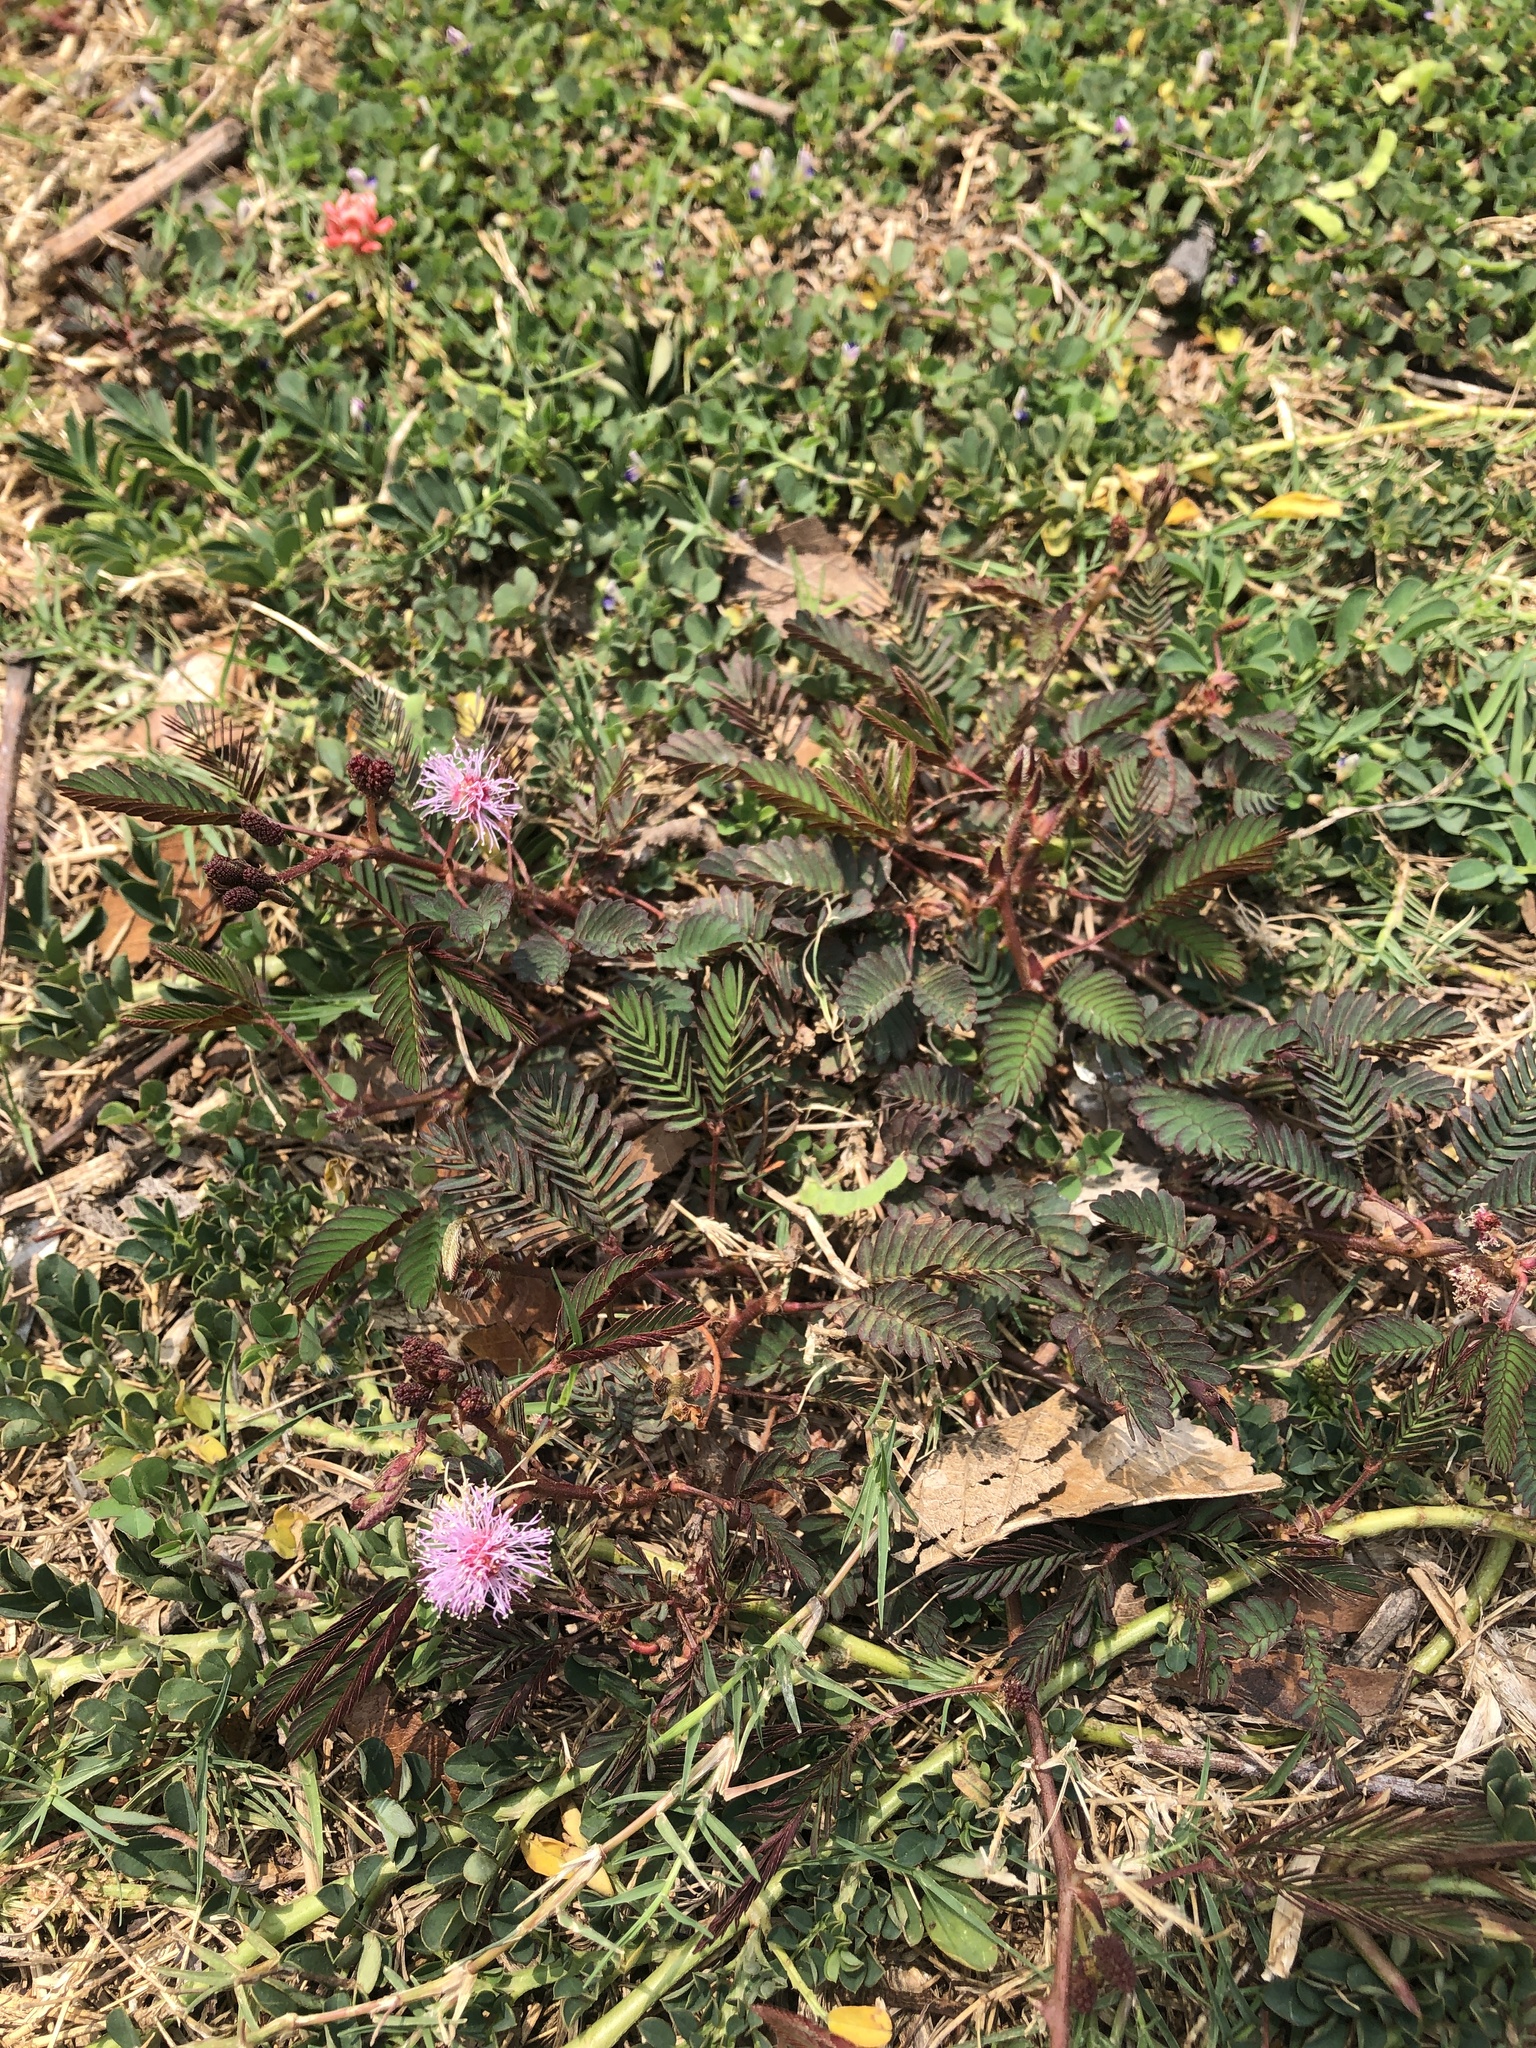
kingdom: Plantae
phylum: Tracheophyta
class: Magnoliopsida
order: Fabales
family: Fabaceae
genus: Mimosa
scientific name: Mimosa pudica
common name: Sensitive plant
